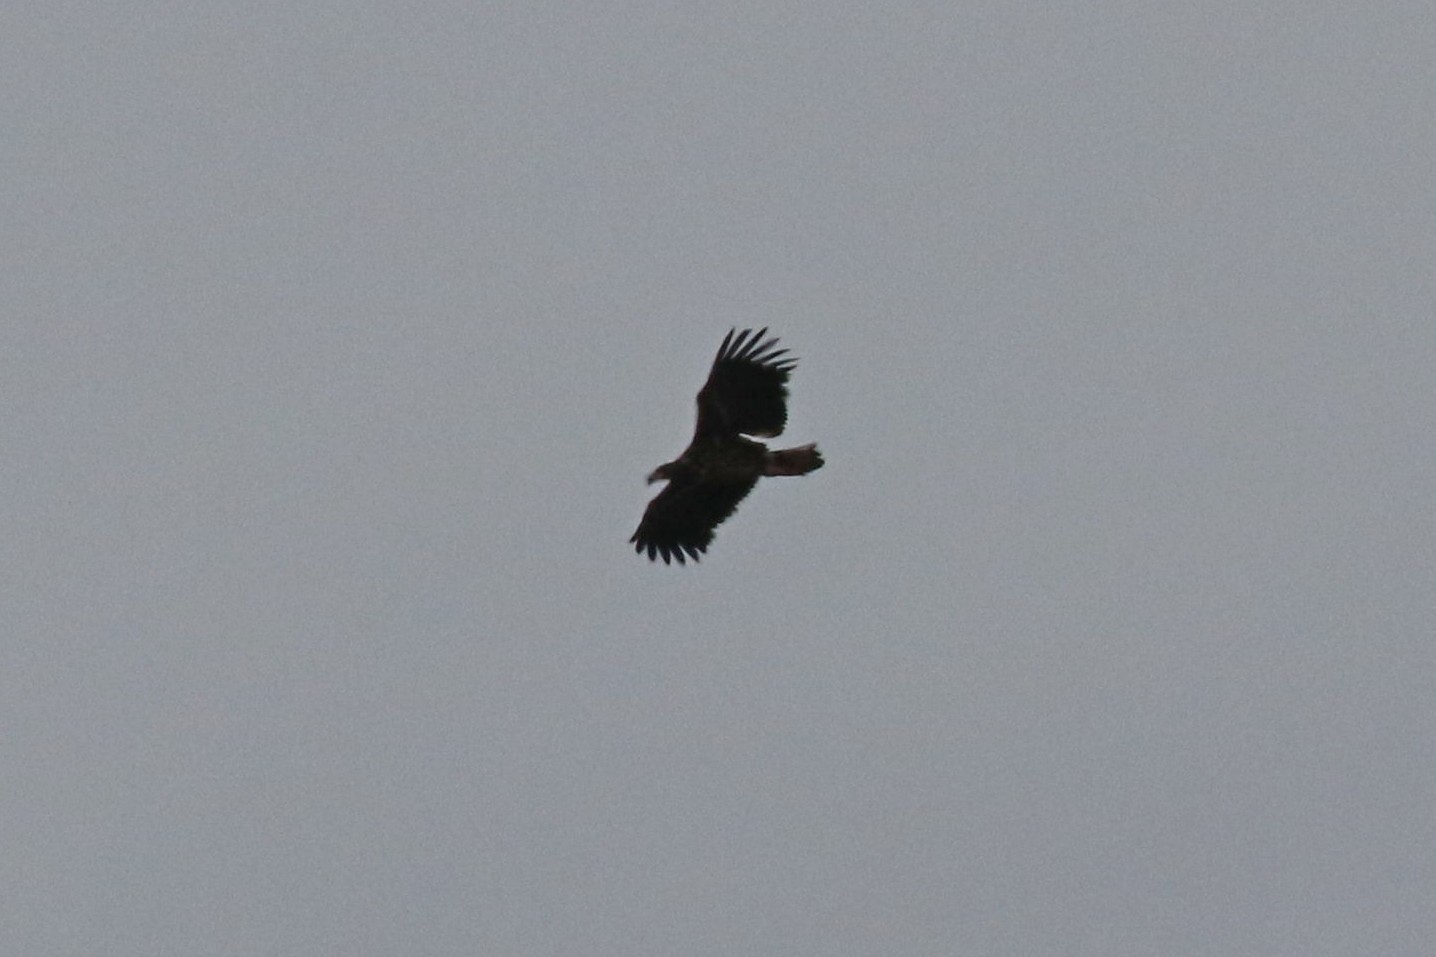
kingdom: Animalia
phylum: Chordata
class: Aves
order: Accipitriformes
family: Accipitridae
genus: Haliaeetus
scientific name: Haliaeetus albicilla
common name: White-tailed eagle
